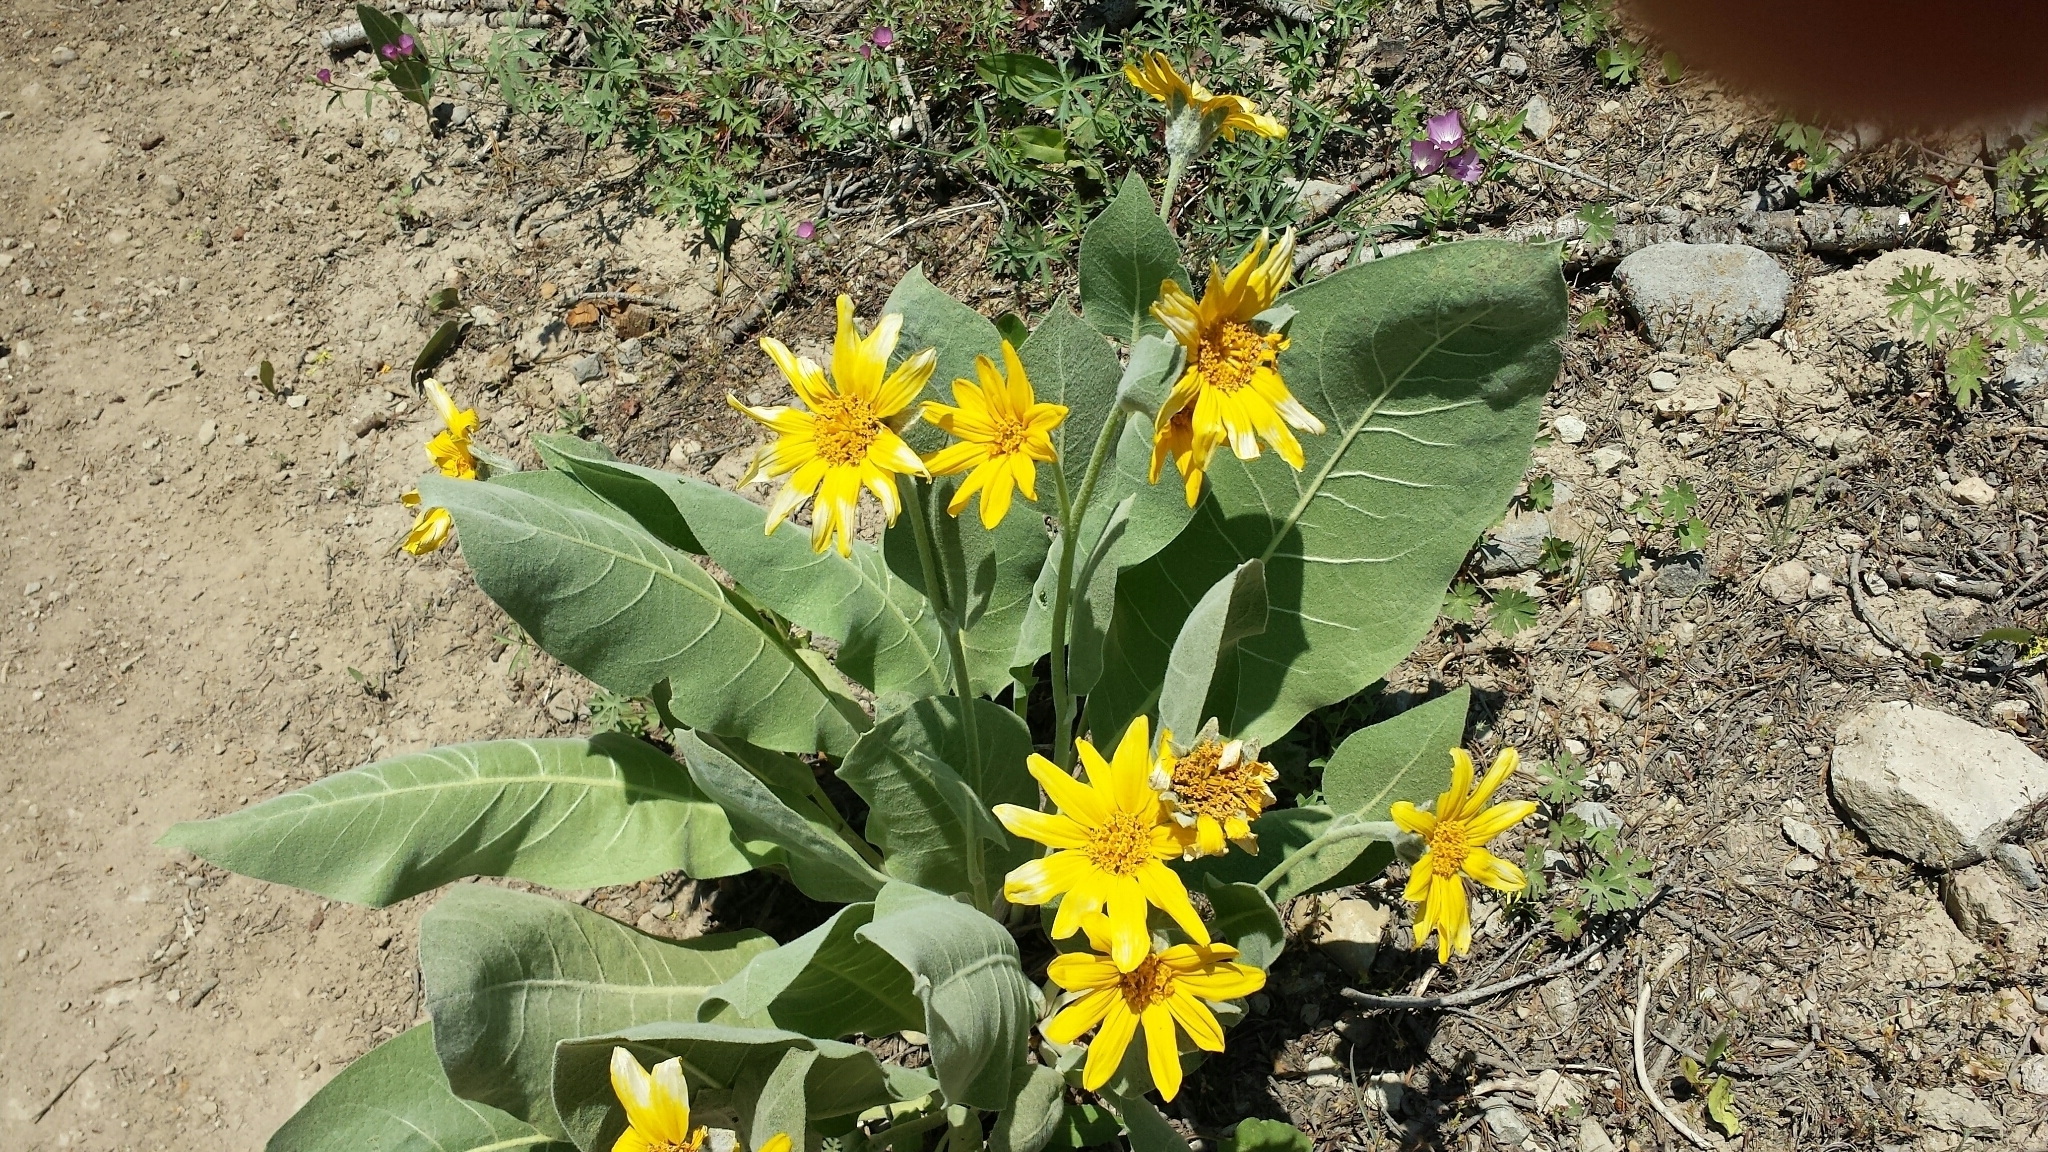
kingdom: Plantae
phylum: Tracheophyta
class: Magnoliopsida
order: Asterales
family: Asteraceae
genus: Wyethia
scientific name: Wyethia mollis
